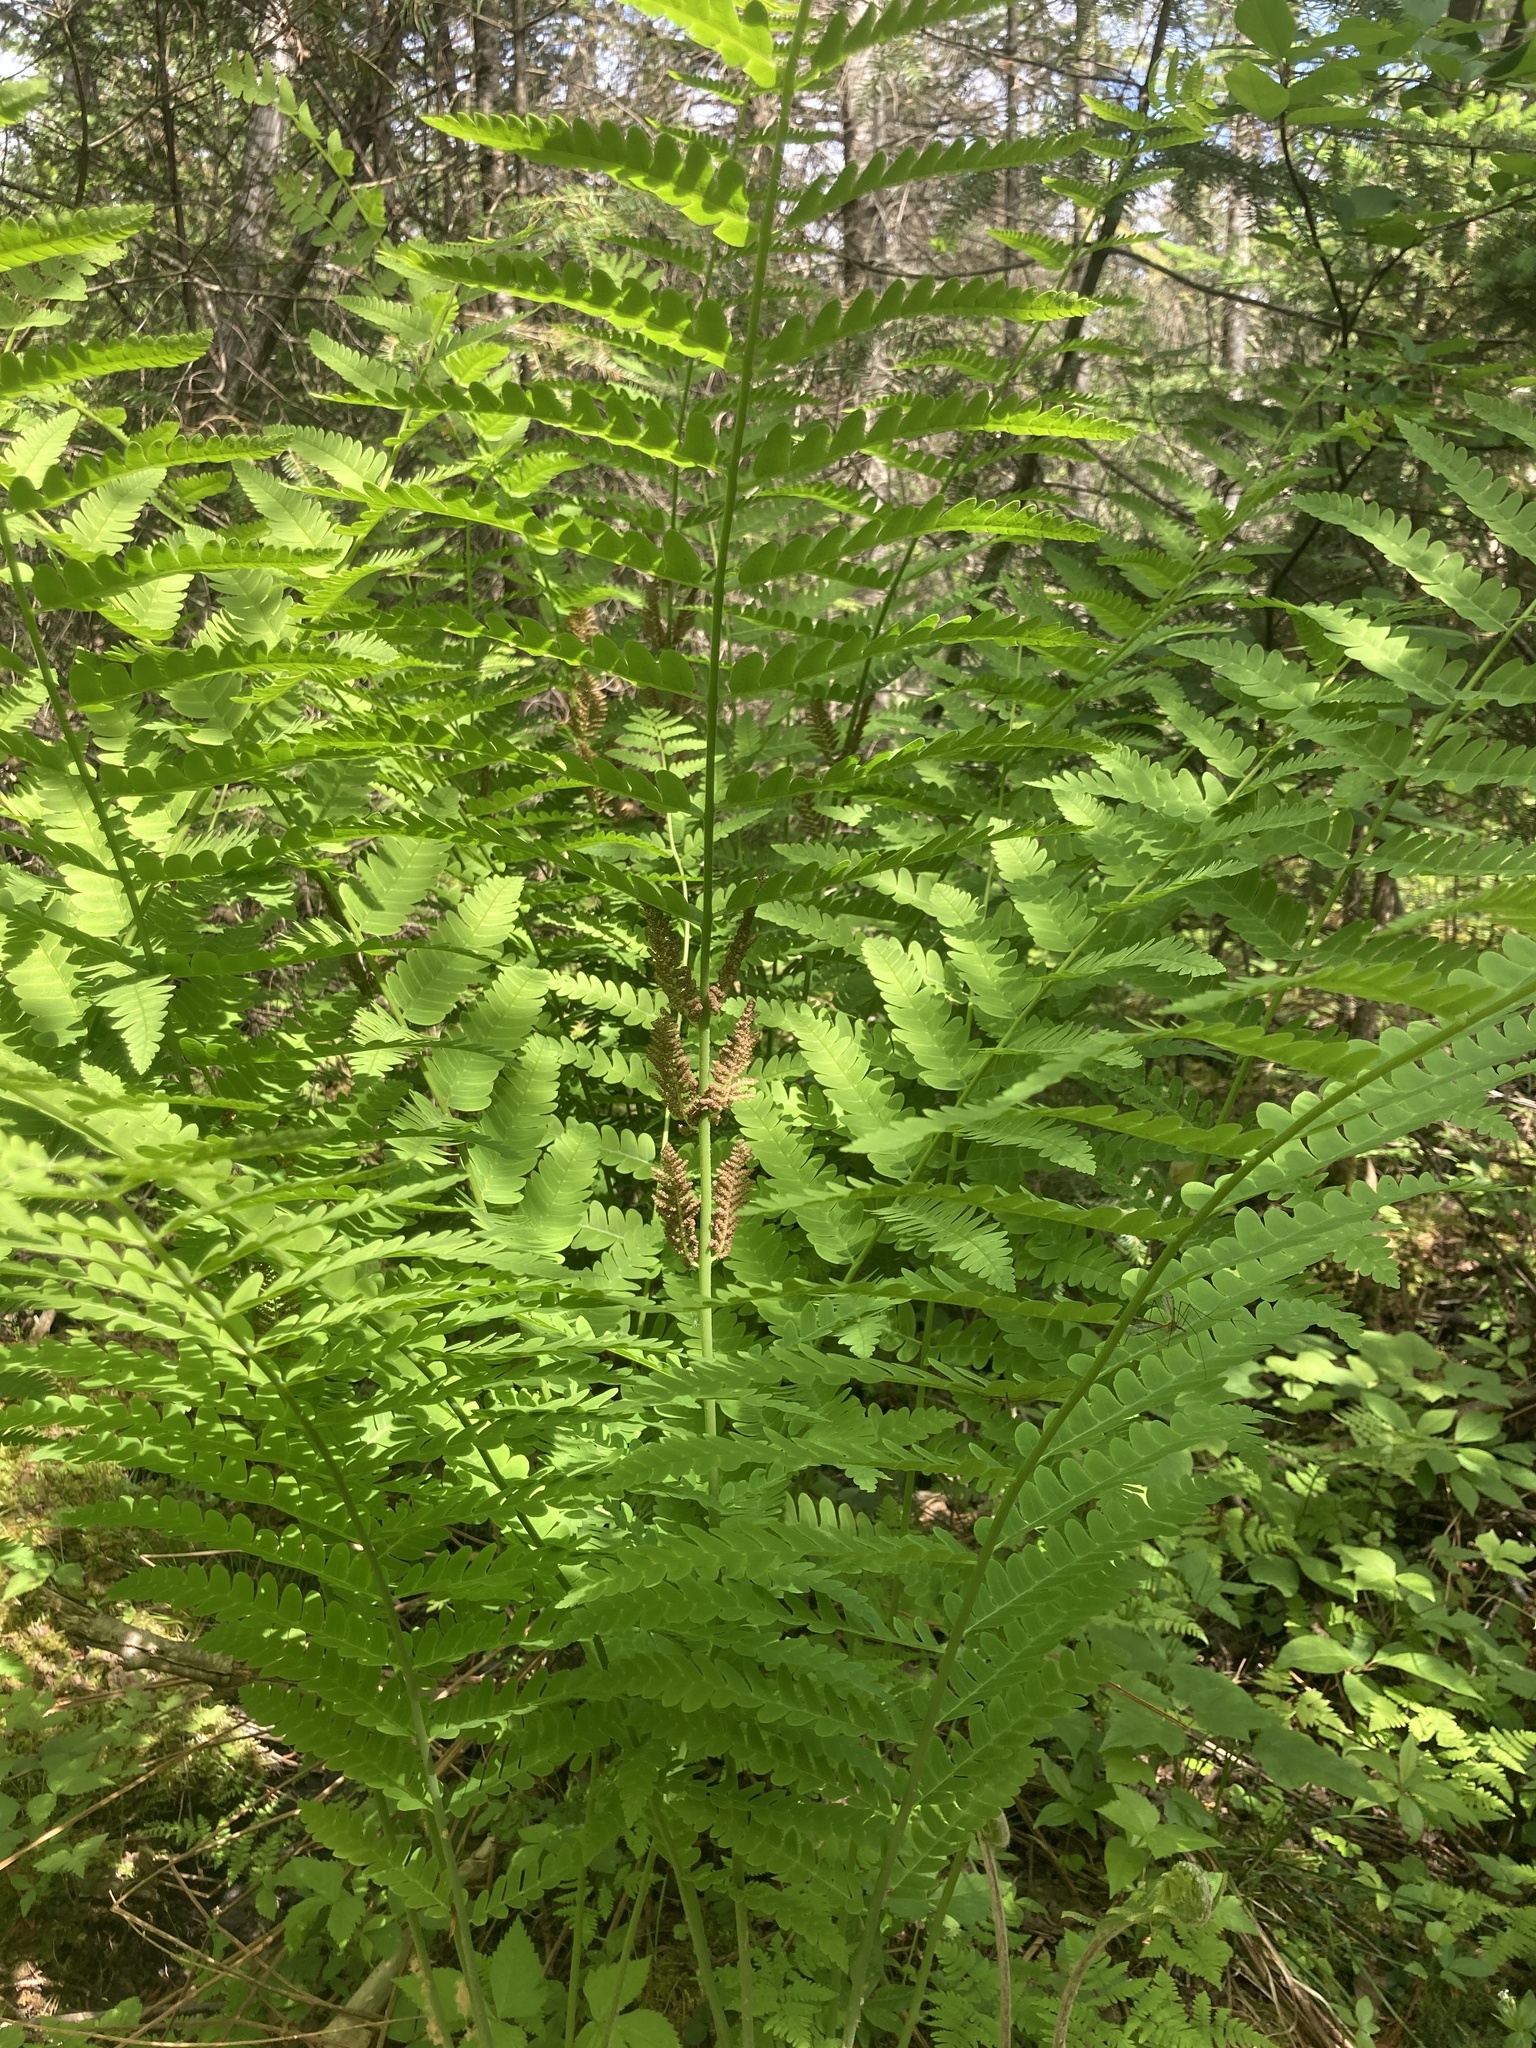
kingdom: Plantae
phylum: Tracheophyta
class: Polypodiopsida
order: Osmundales
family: Osmundaceae
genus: Claytosmunda
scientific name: Claytosmunda claytoniana
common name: Clayton's fern
